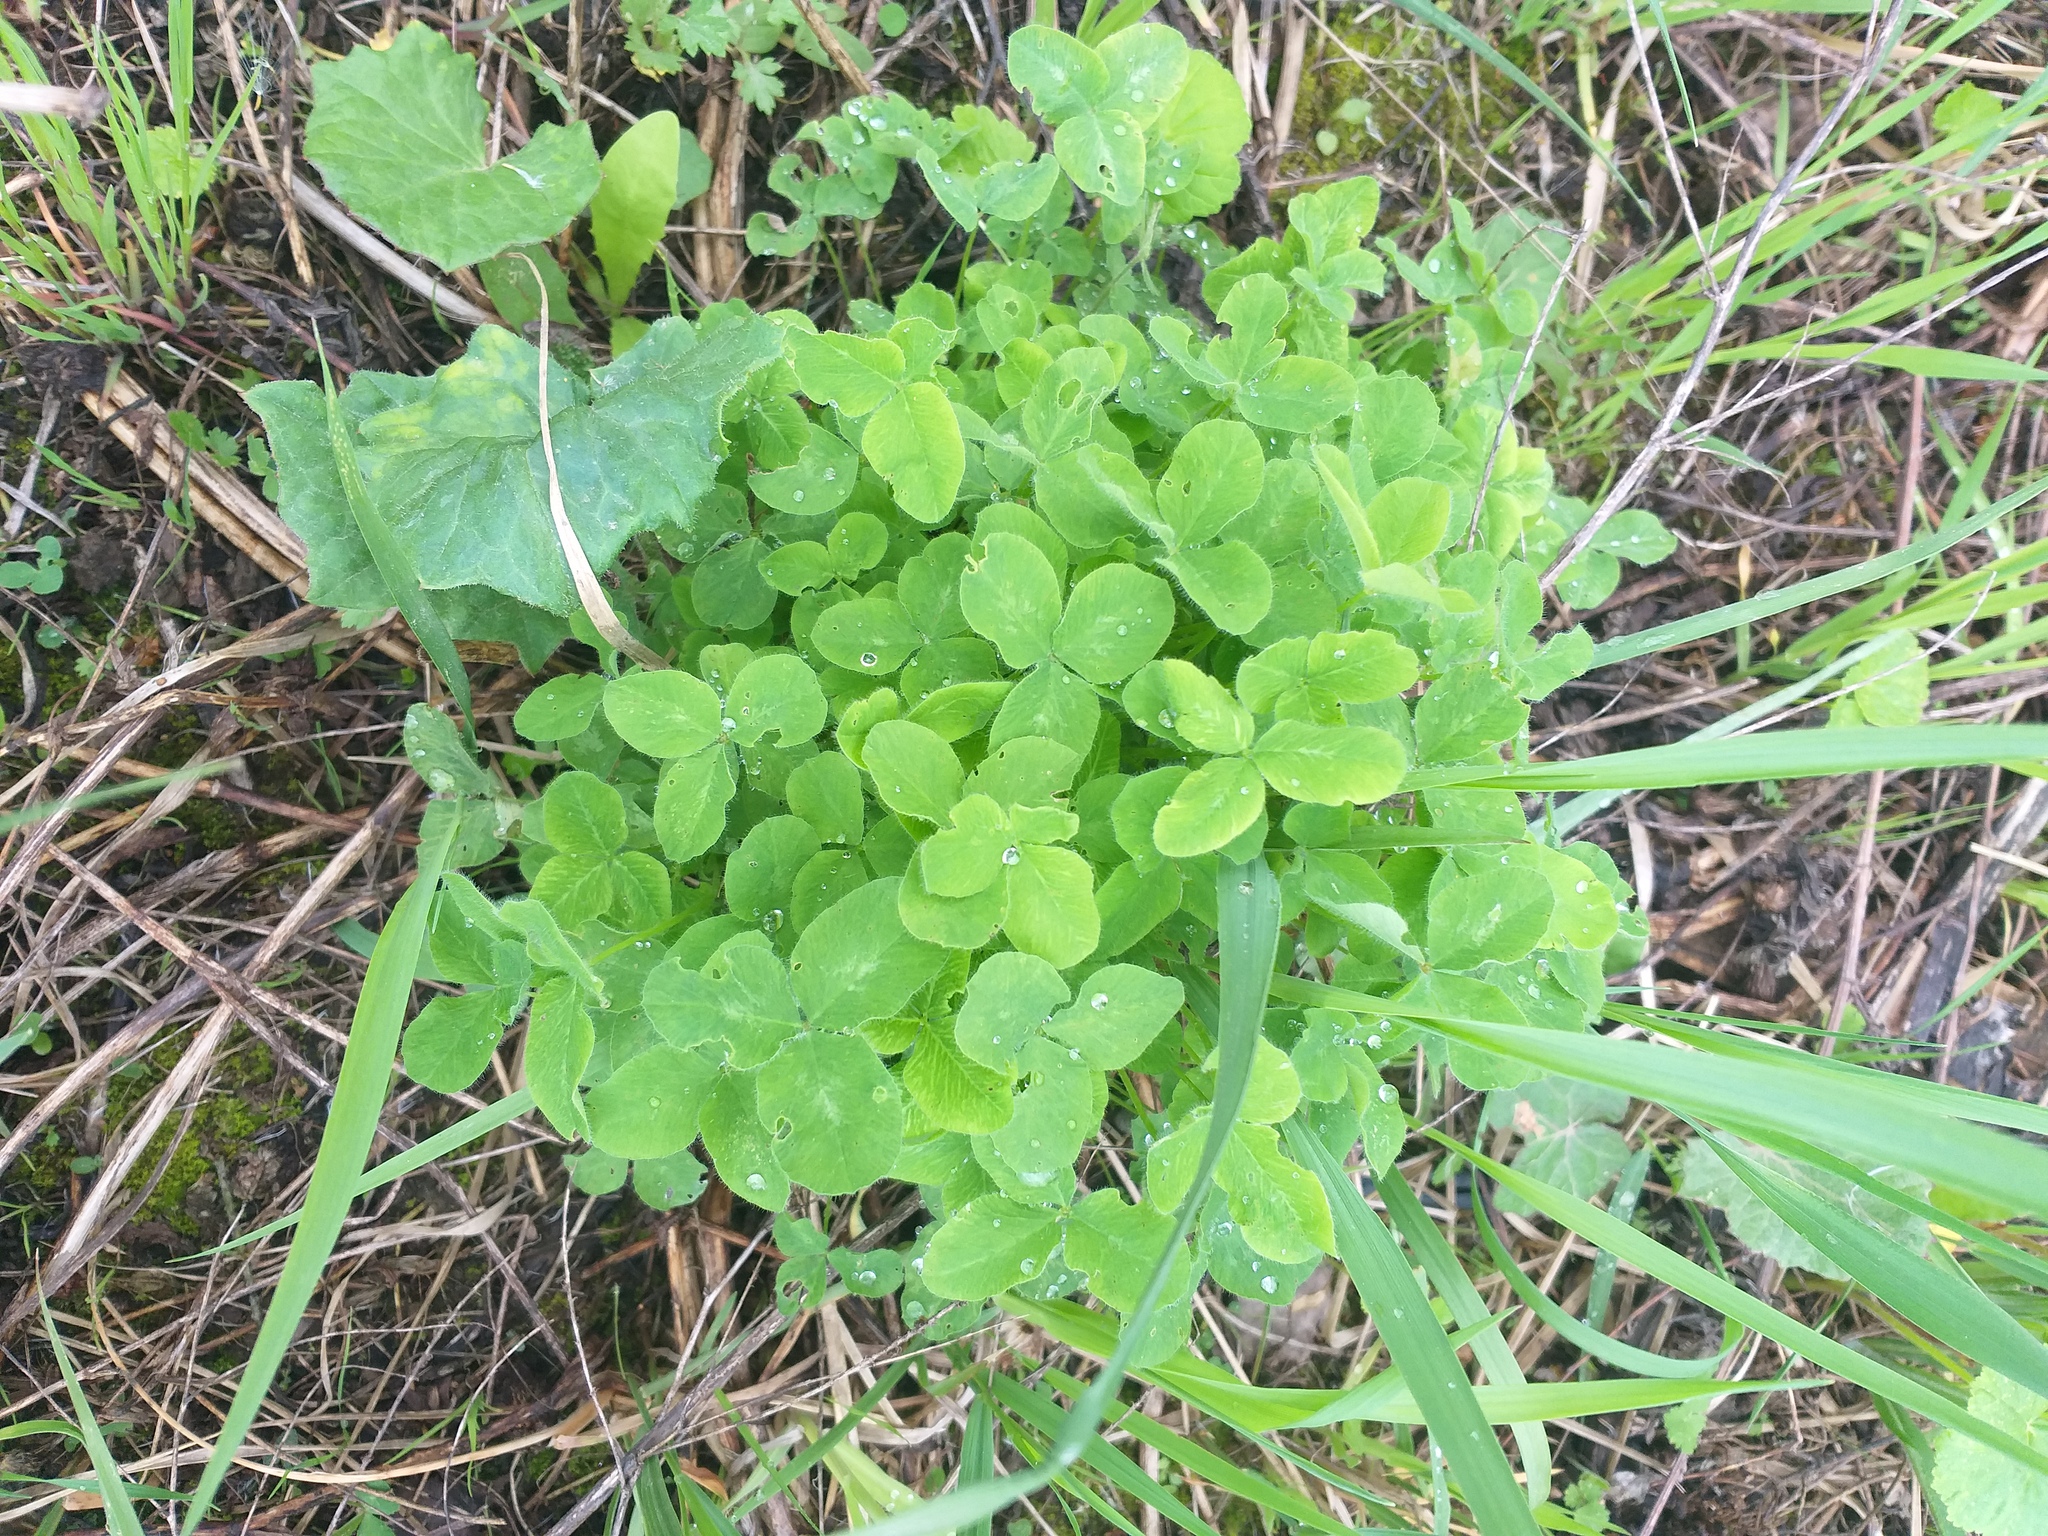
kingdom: Plantae
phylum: Tracheophyta
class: Magnoliopsida
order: Fabales
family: Fabaceae
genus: Trifolium
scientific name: Trifolium pratense
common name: Red clover
